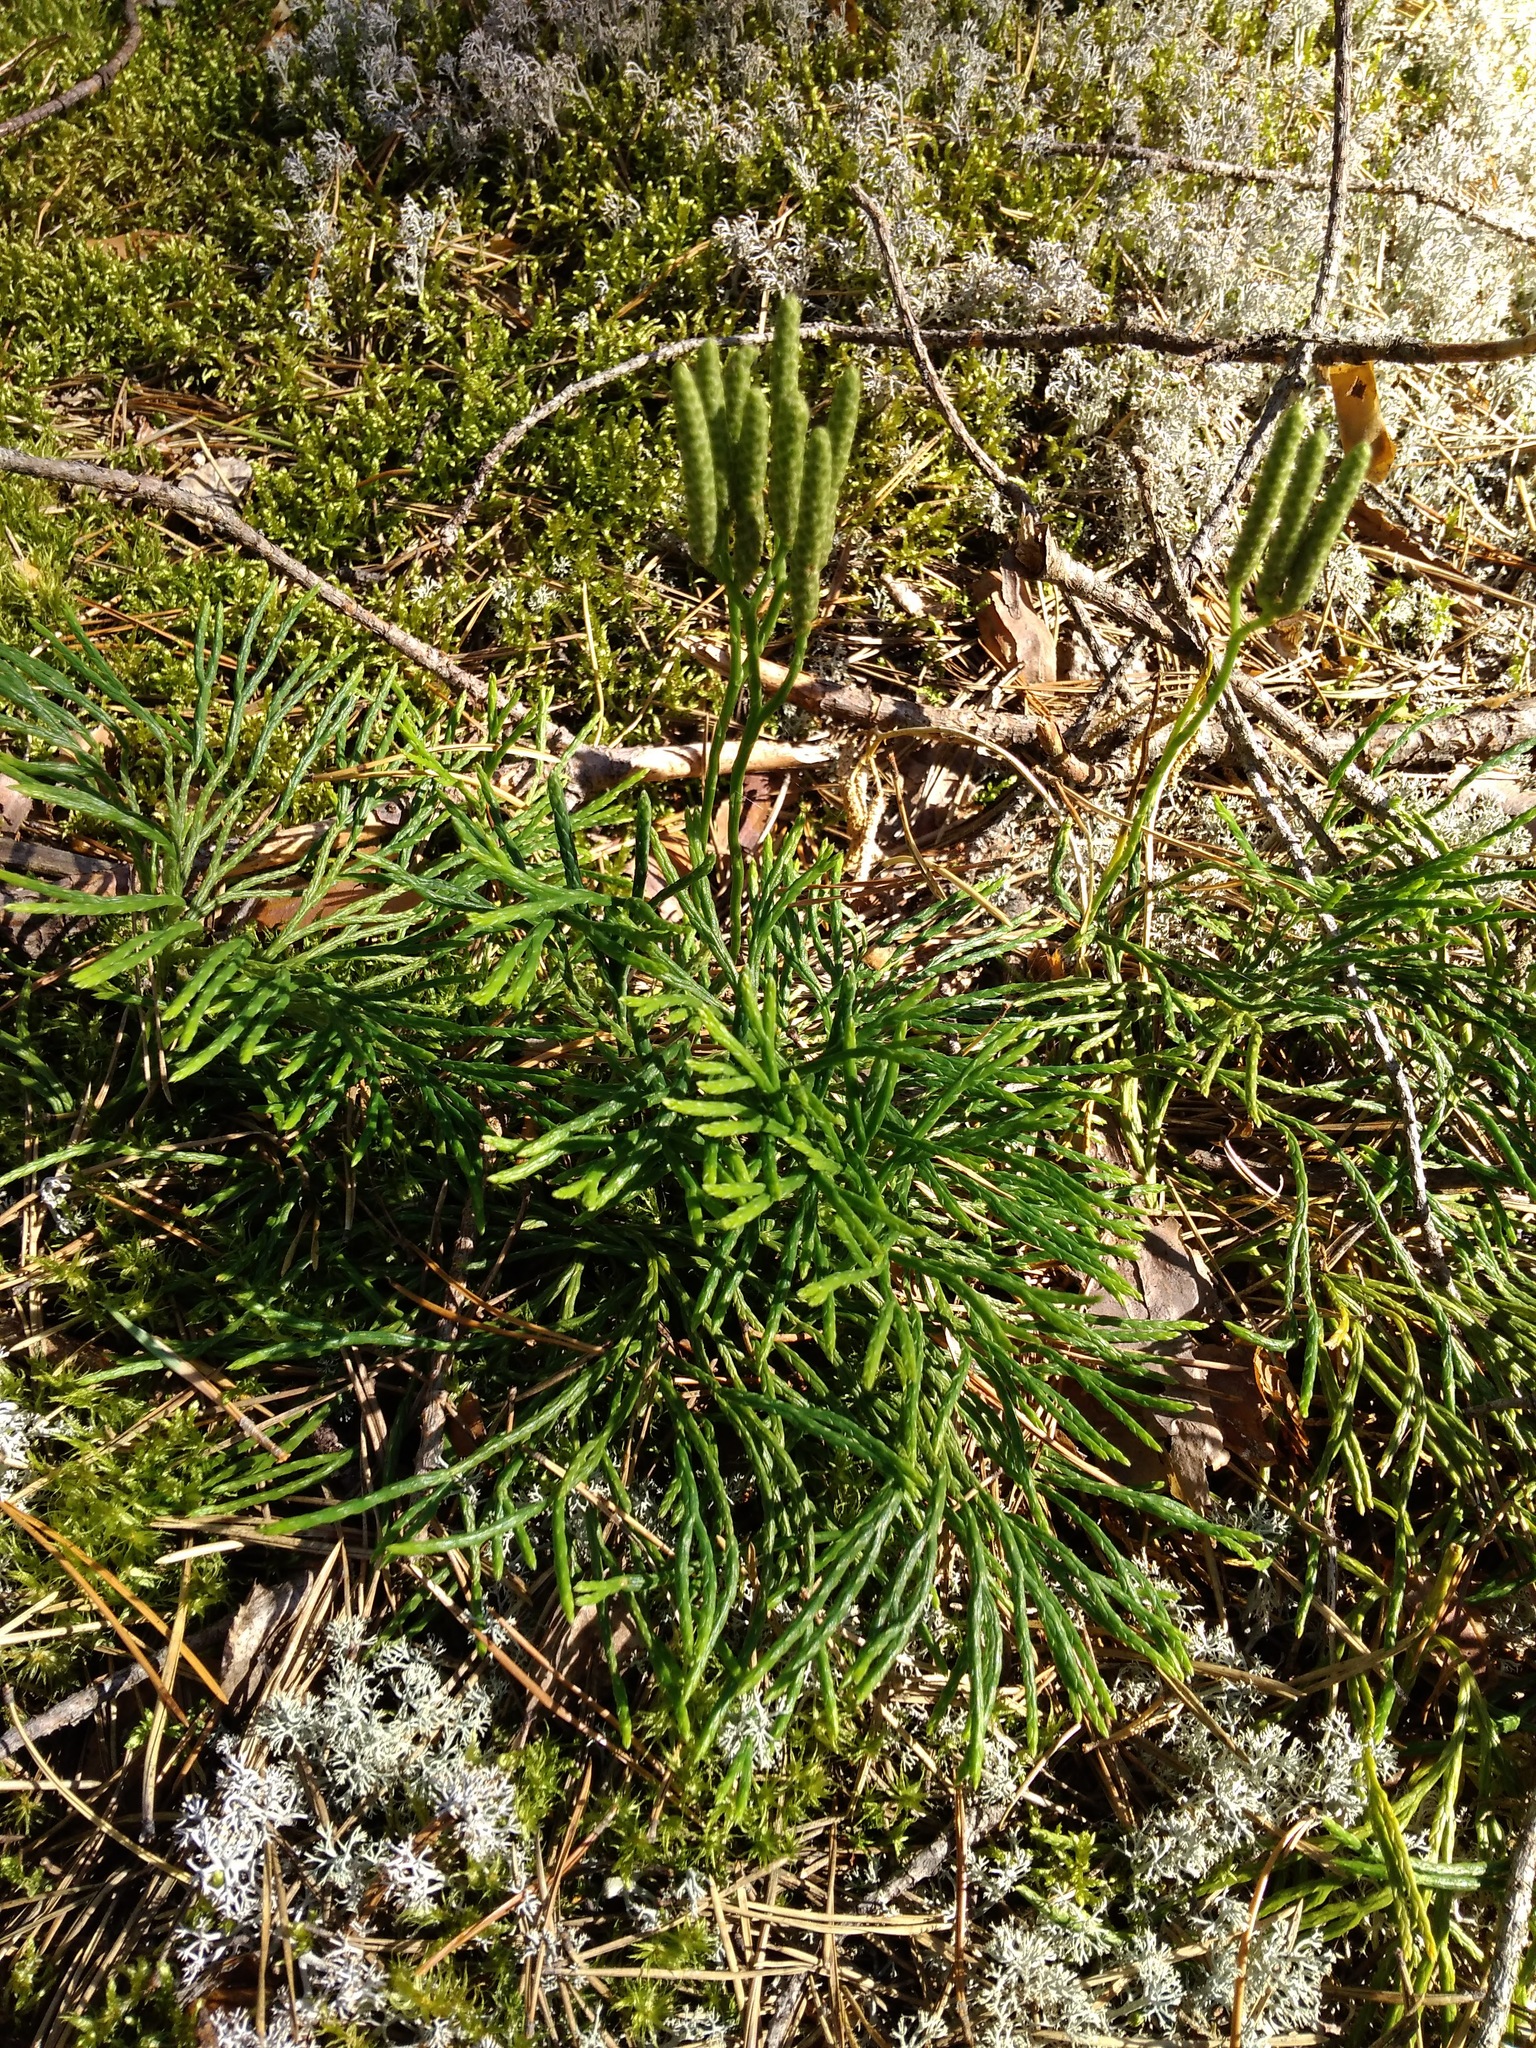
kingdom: Plantae
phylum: Tracheophyta
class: Lycopodiopsida
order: Lycopodiales
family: Lycopodiaceae
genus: Diphasiastrum
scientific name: Diphasiastrum complanatum
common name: Northern running-pine
